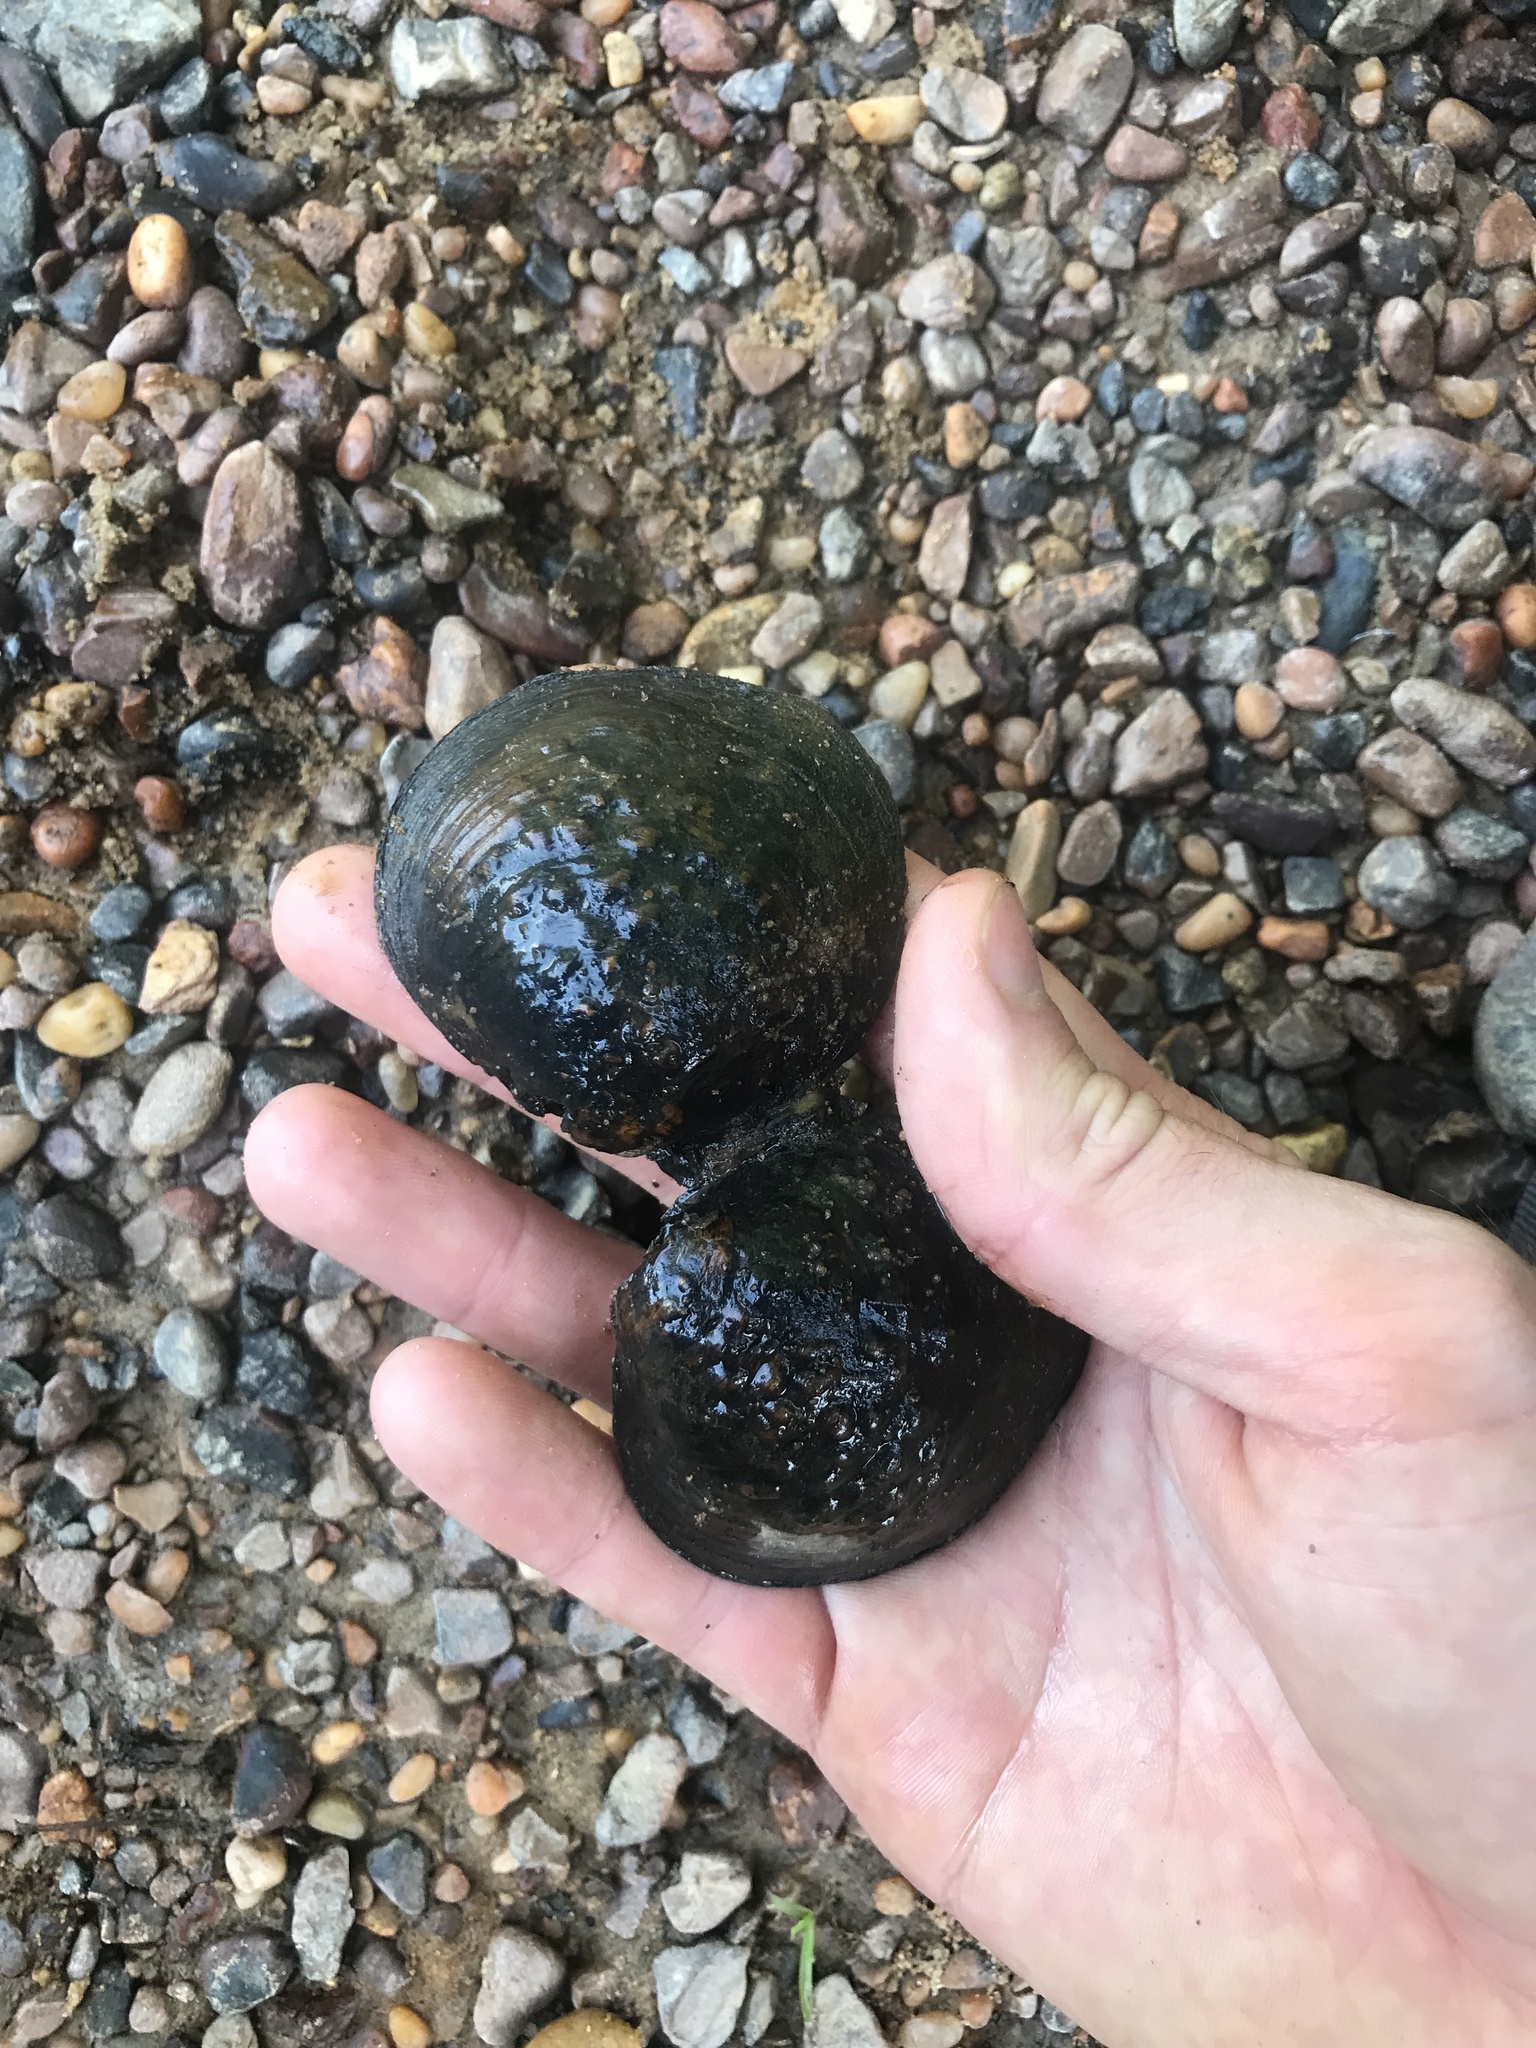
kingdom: Animalia
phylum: Mollusca
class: Bivalvia
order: Unionida
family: Unionidae
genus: Cyclonaias
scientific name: Cyclonaias kieneriana
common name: Coosa orb
